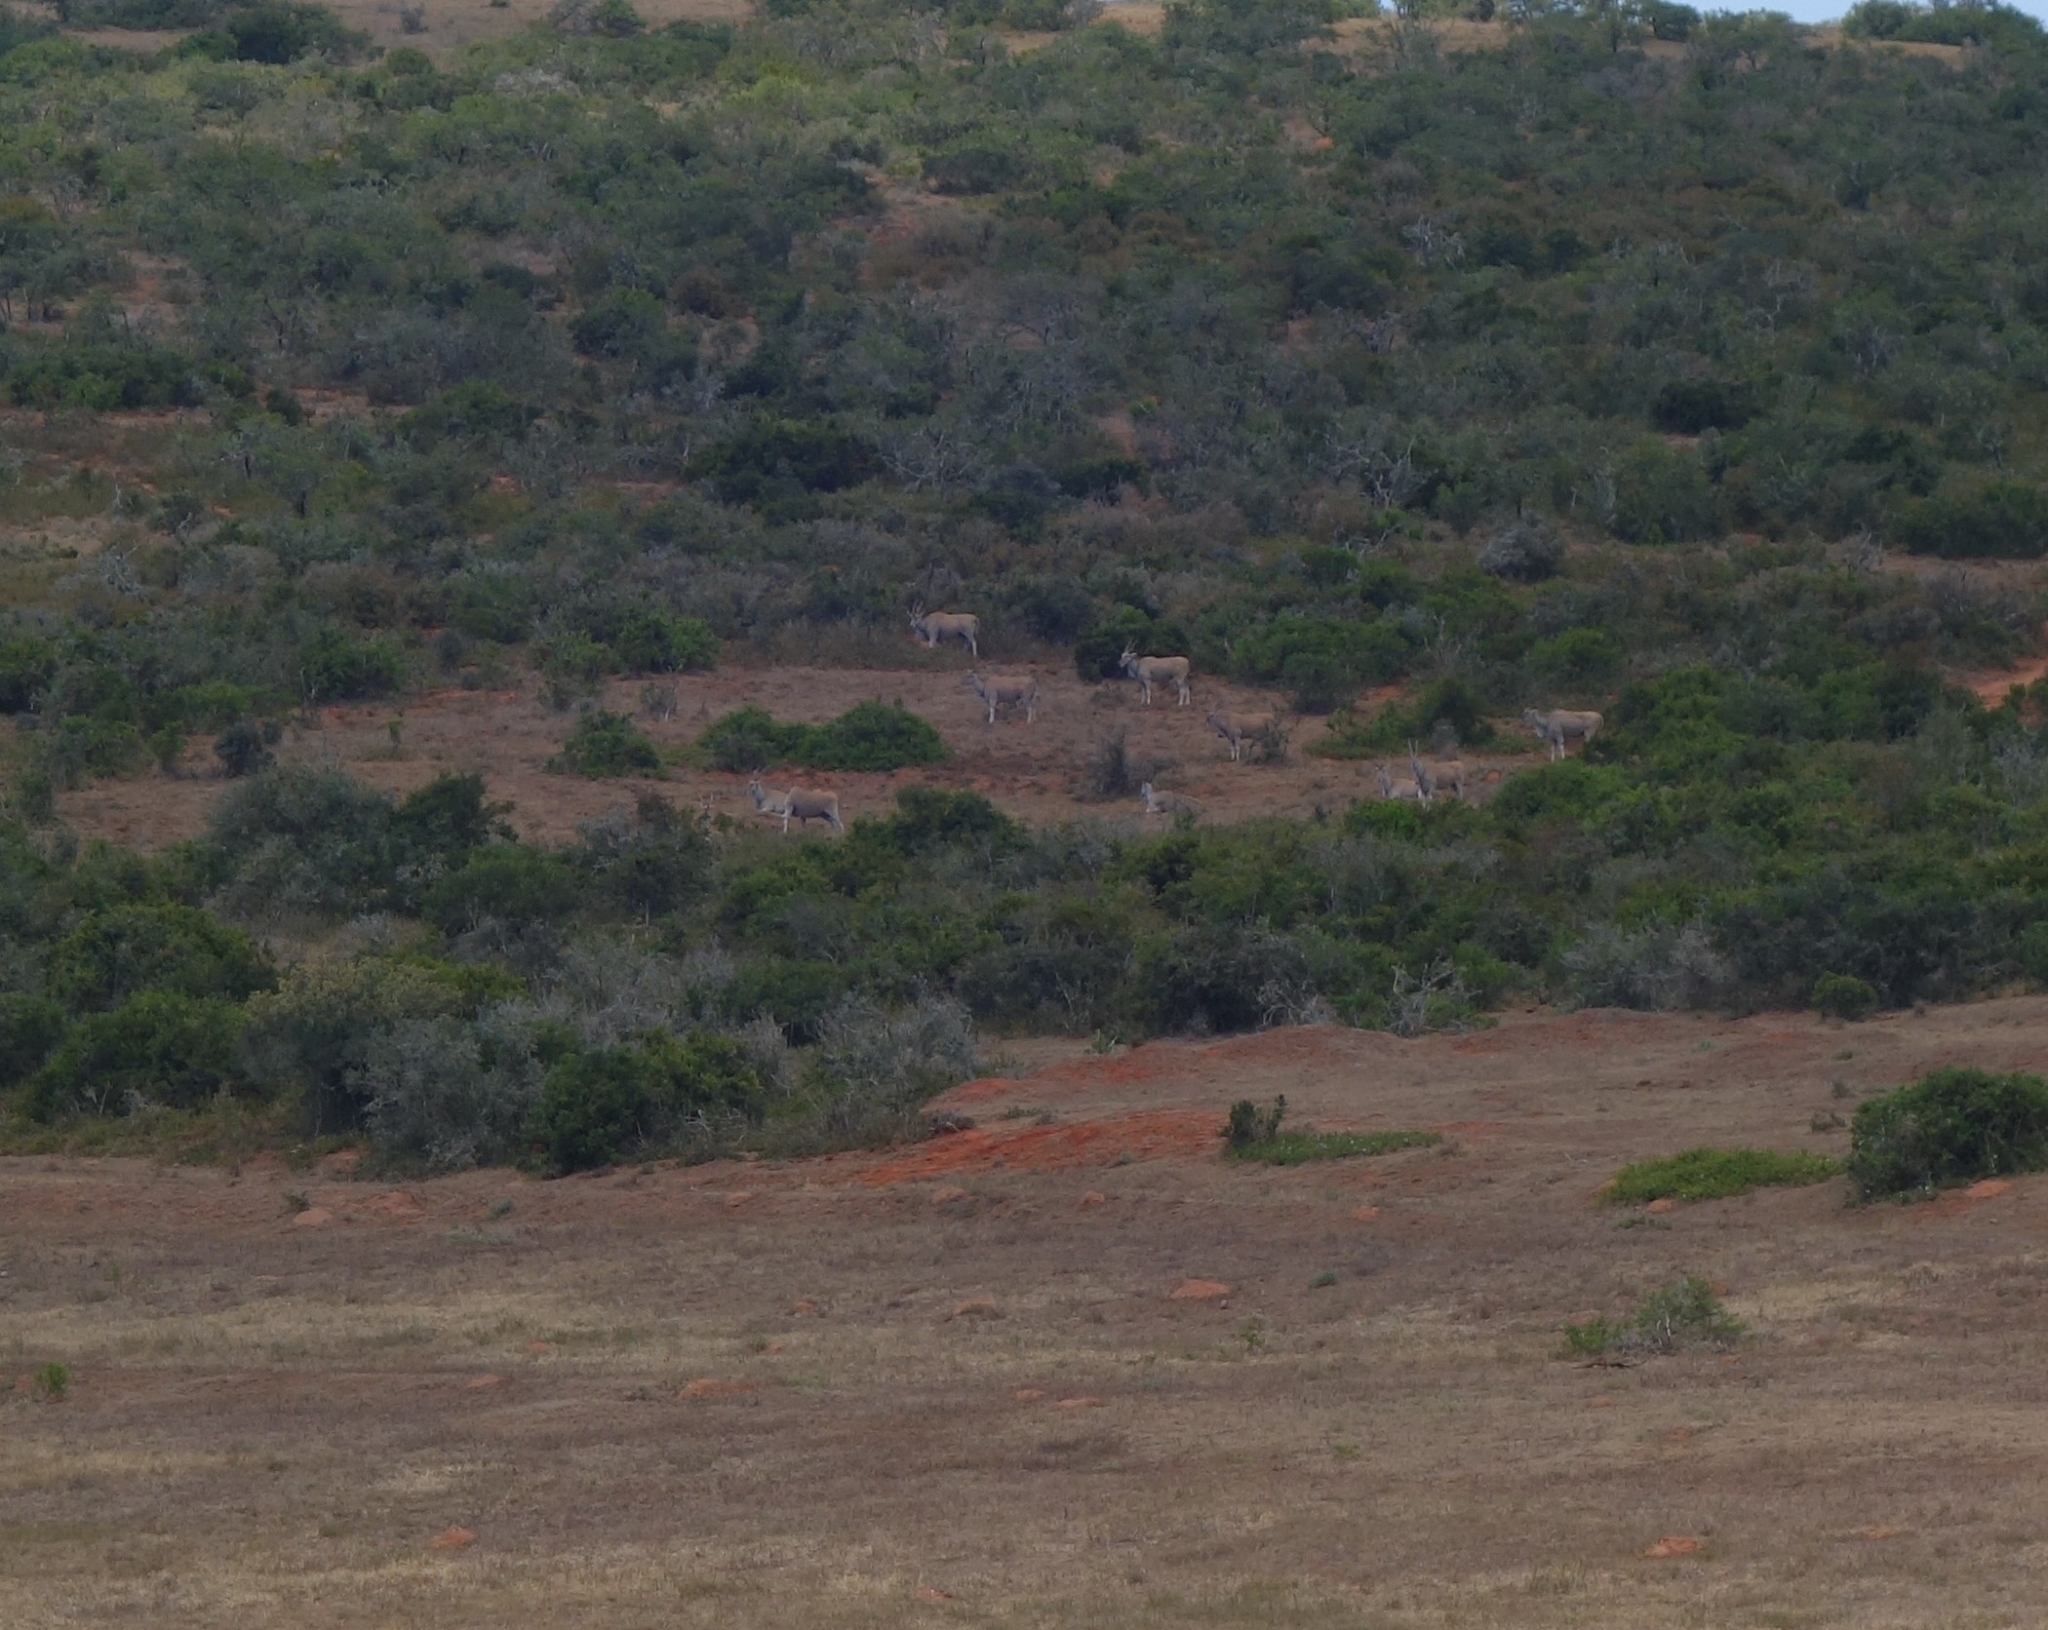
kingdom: Animalia
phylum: Chordata
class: Mammalia
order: Artiodactyla
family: Bovidae
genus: Taurotragus
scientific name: Taurotragus oryx
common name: Common eland
